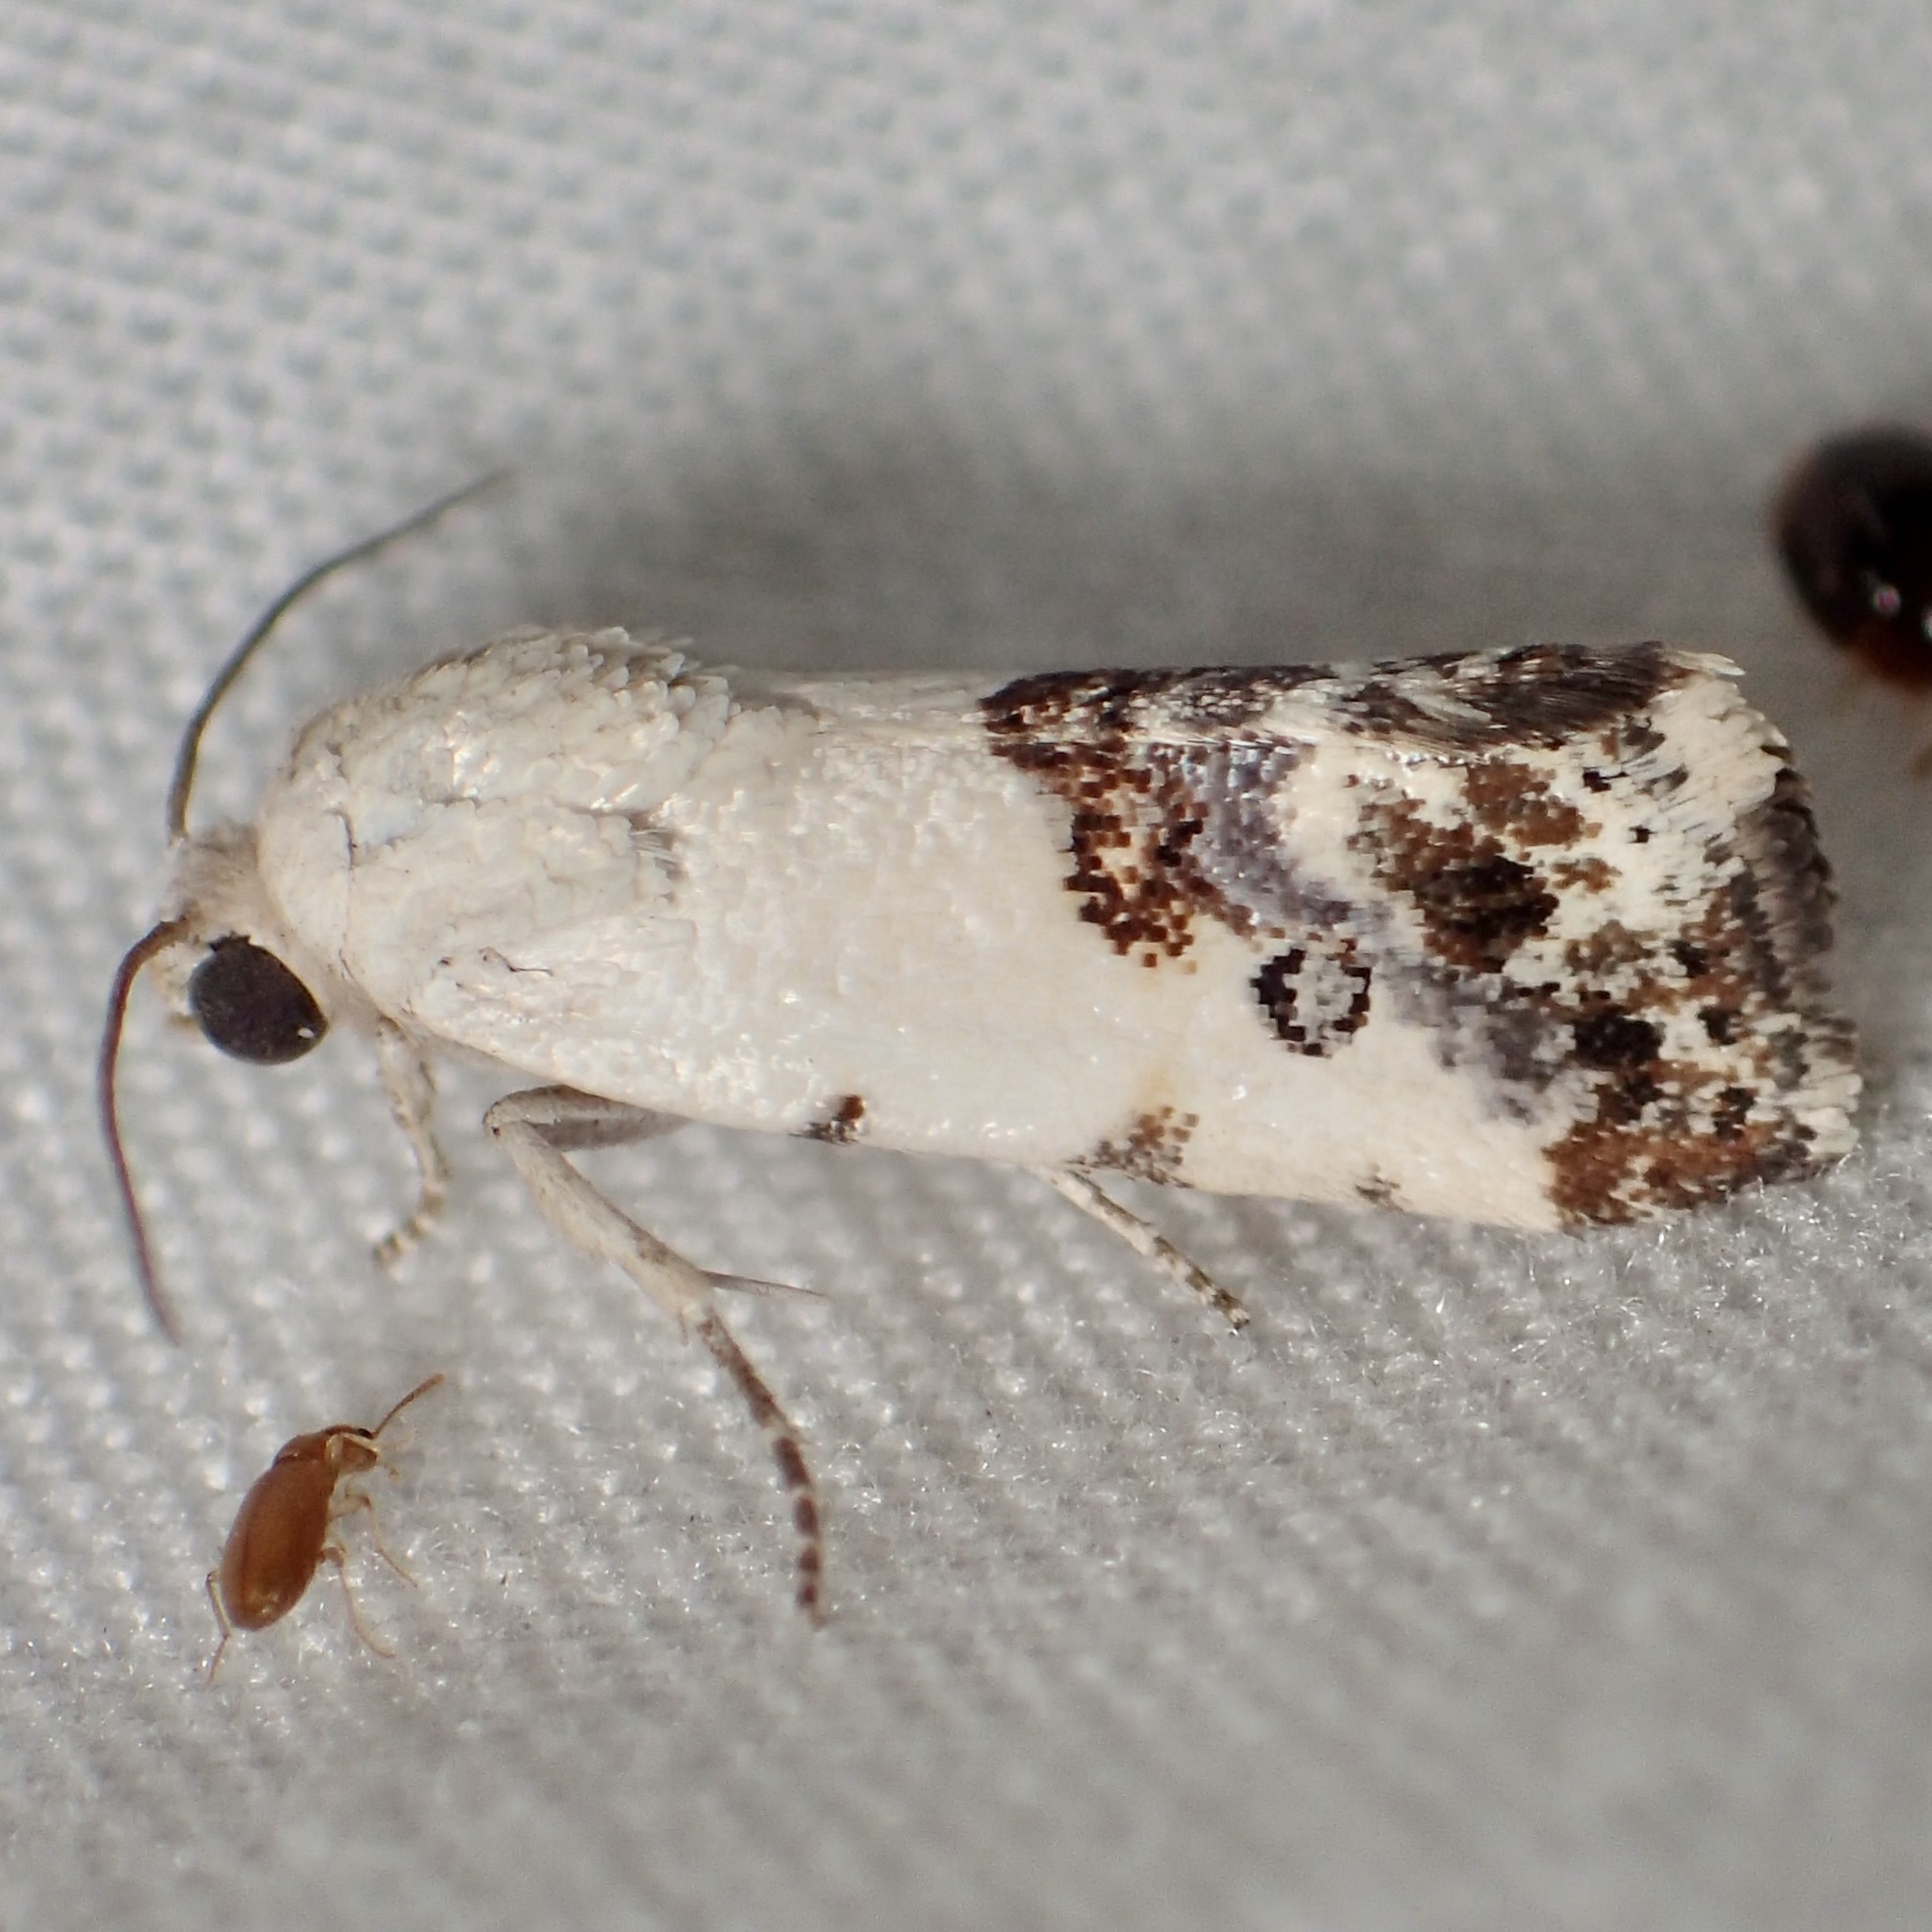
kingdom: Animalia
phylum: Arthropoda
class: Insecta
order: Lepidoptera
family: Noctuidae
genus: Acontia
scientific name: Acontia phecolisca
